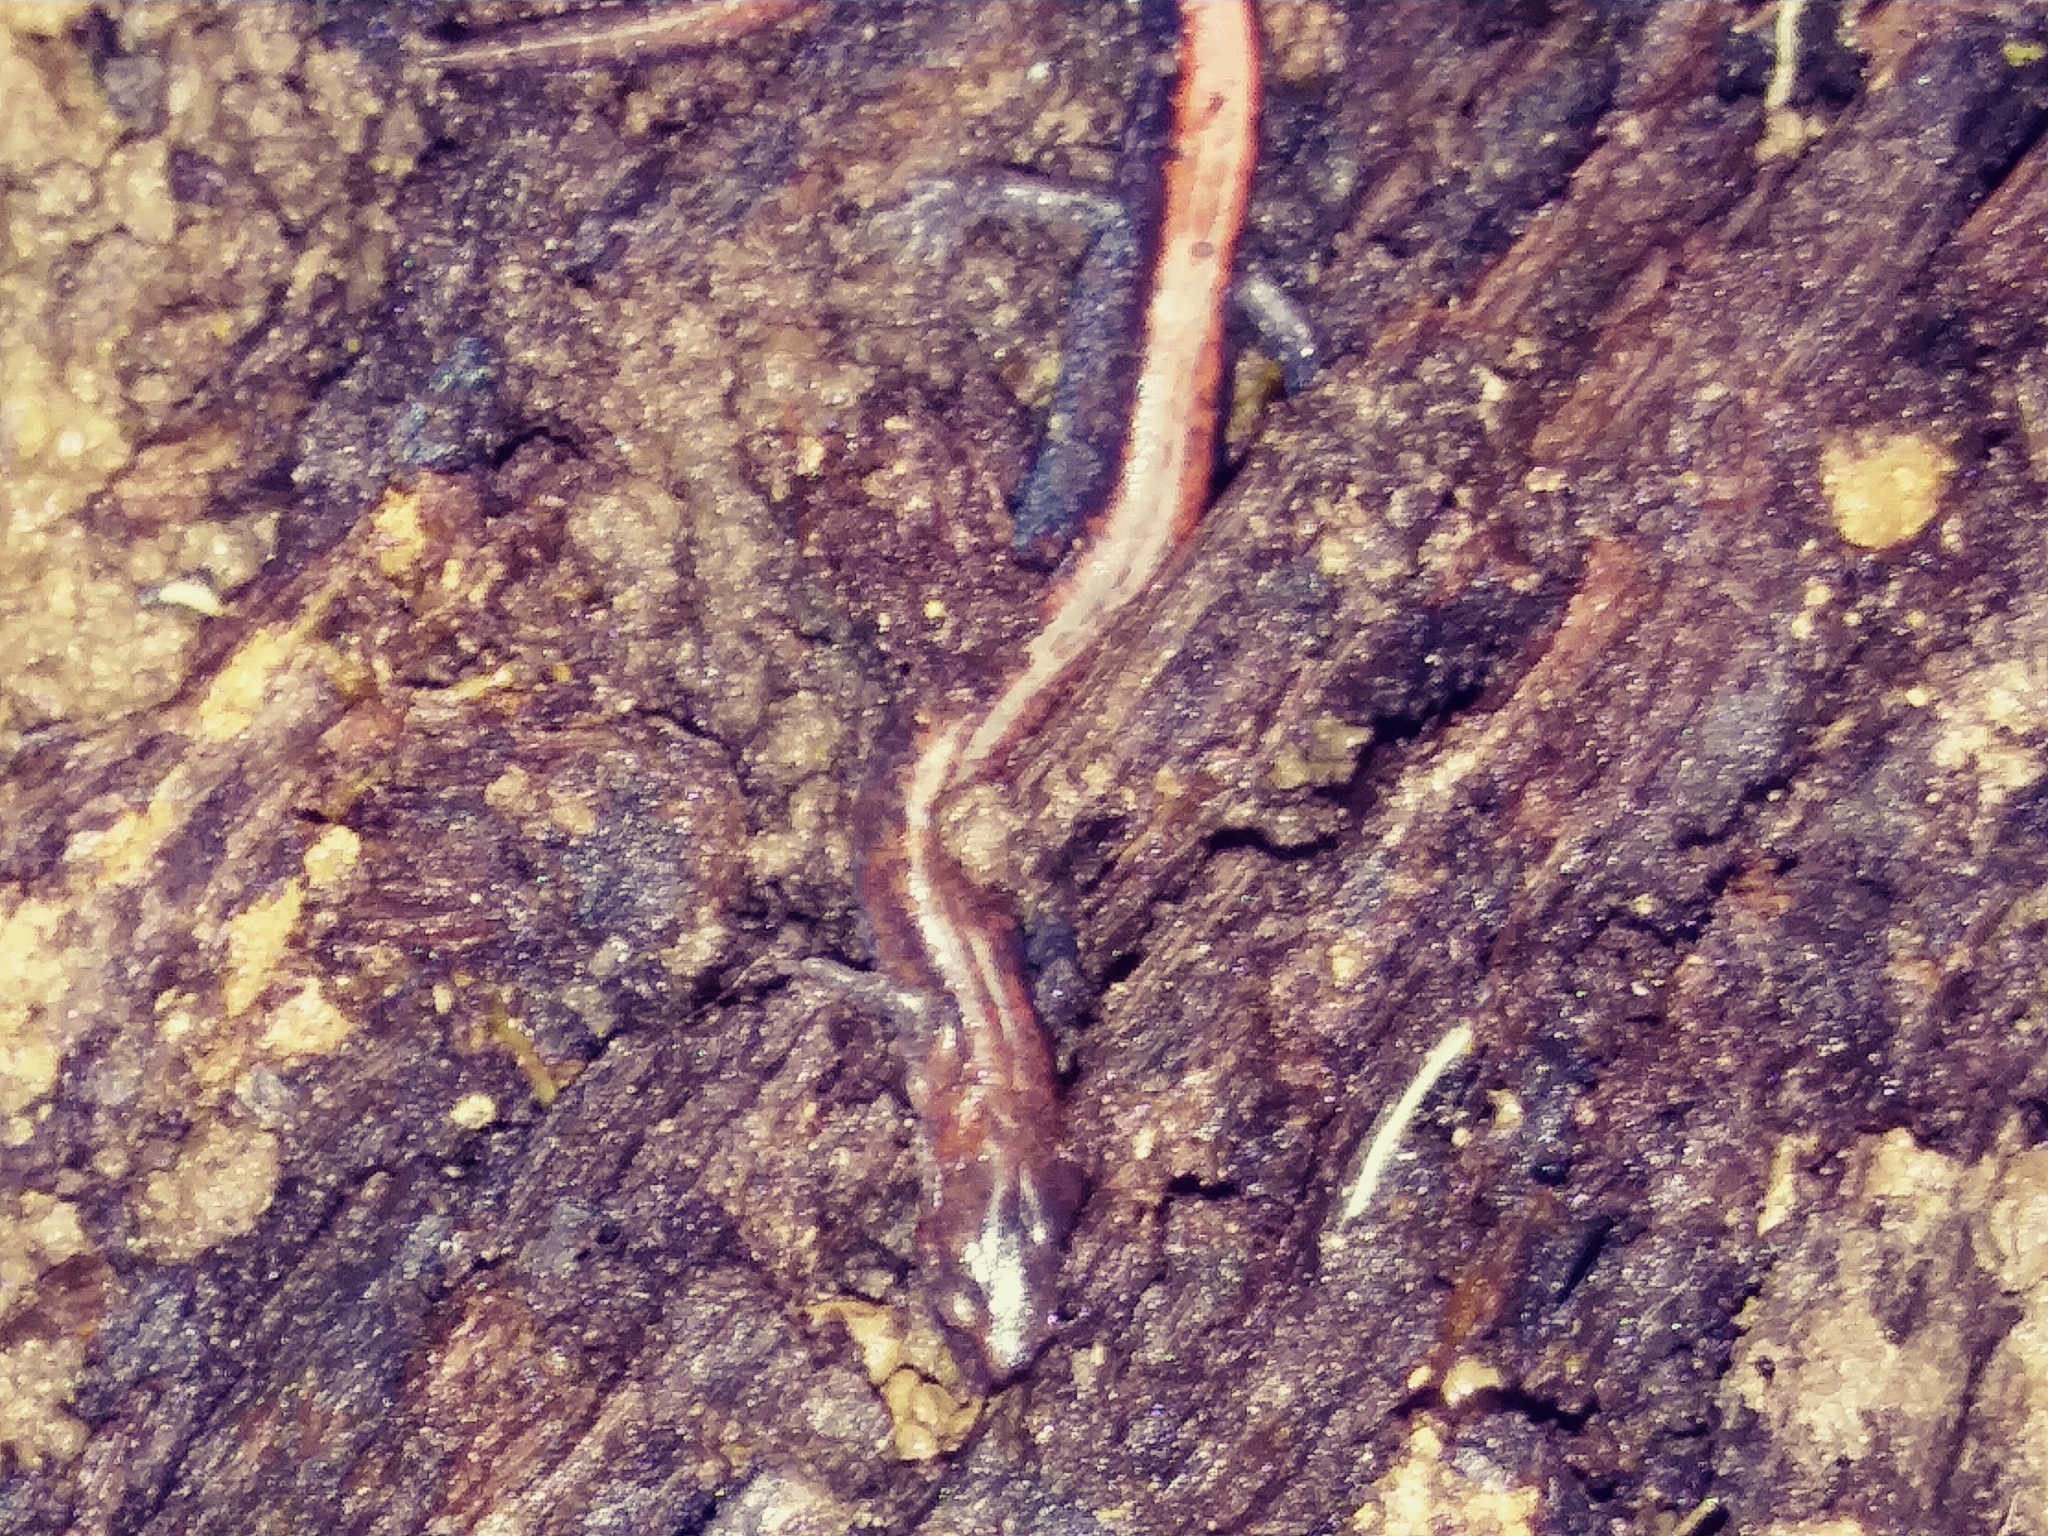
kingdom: Animalia
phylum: Chordata
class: Amphibia
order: Caudata
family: Plethodontidae
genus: Plethodon
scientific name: Plethodon cinereus
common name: Redback salamander
